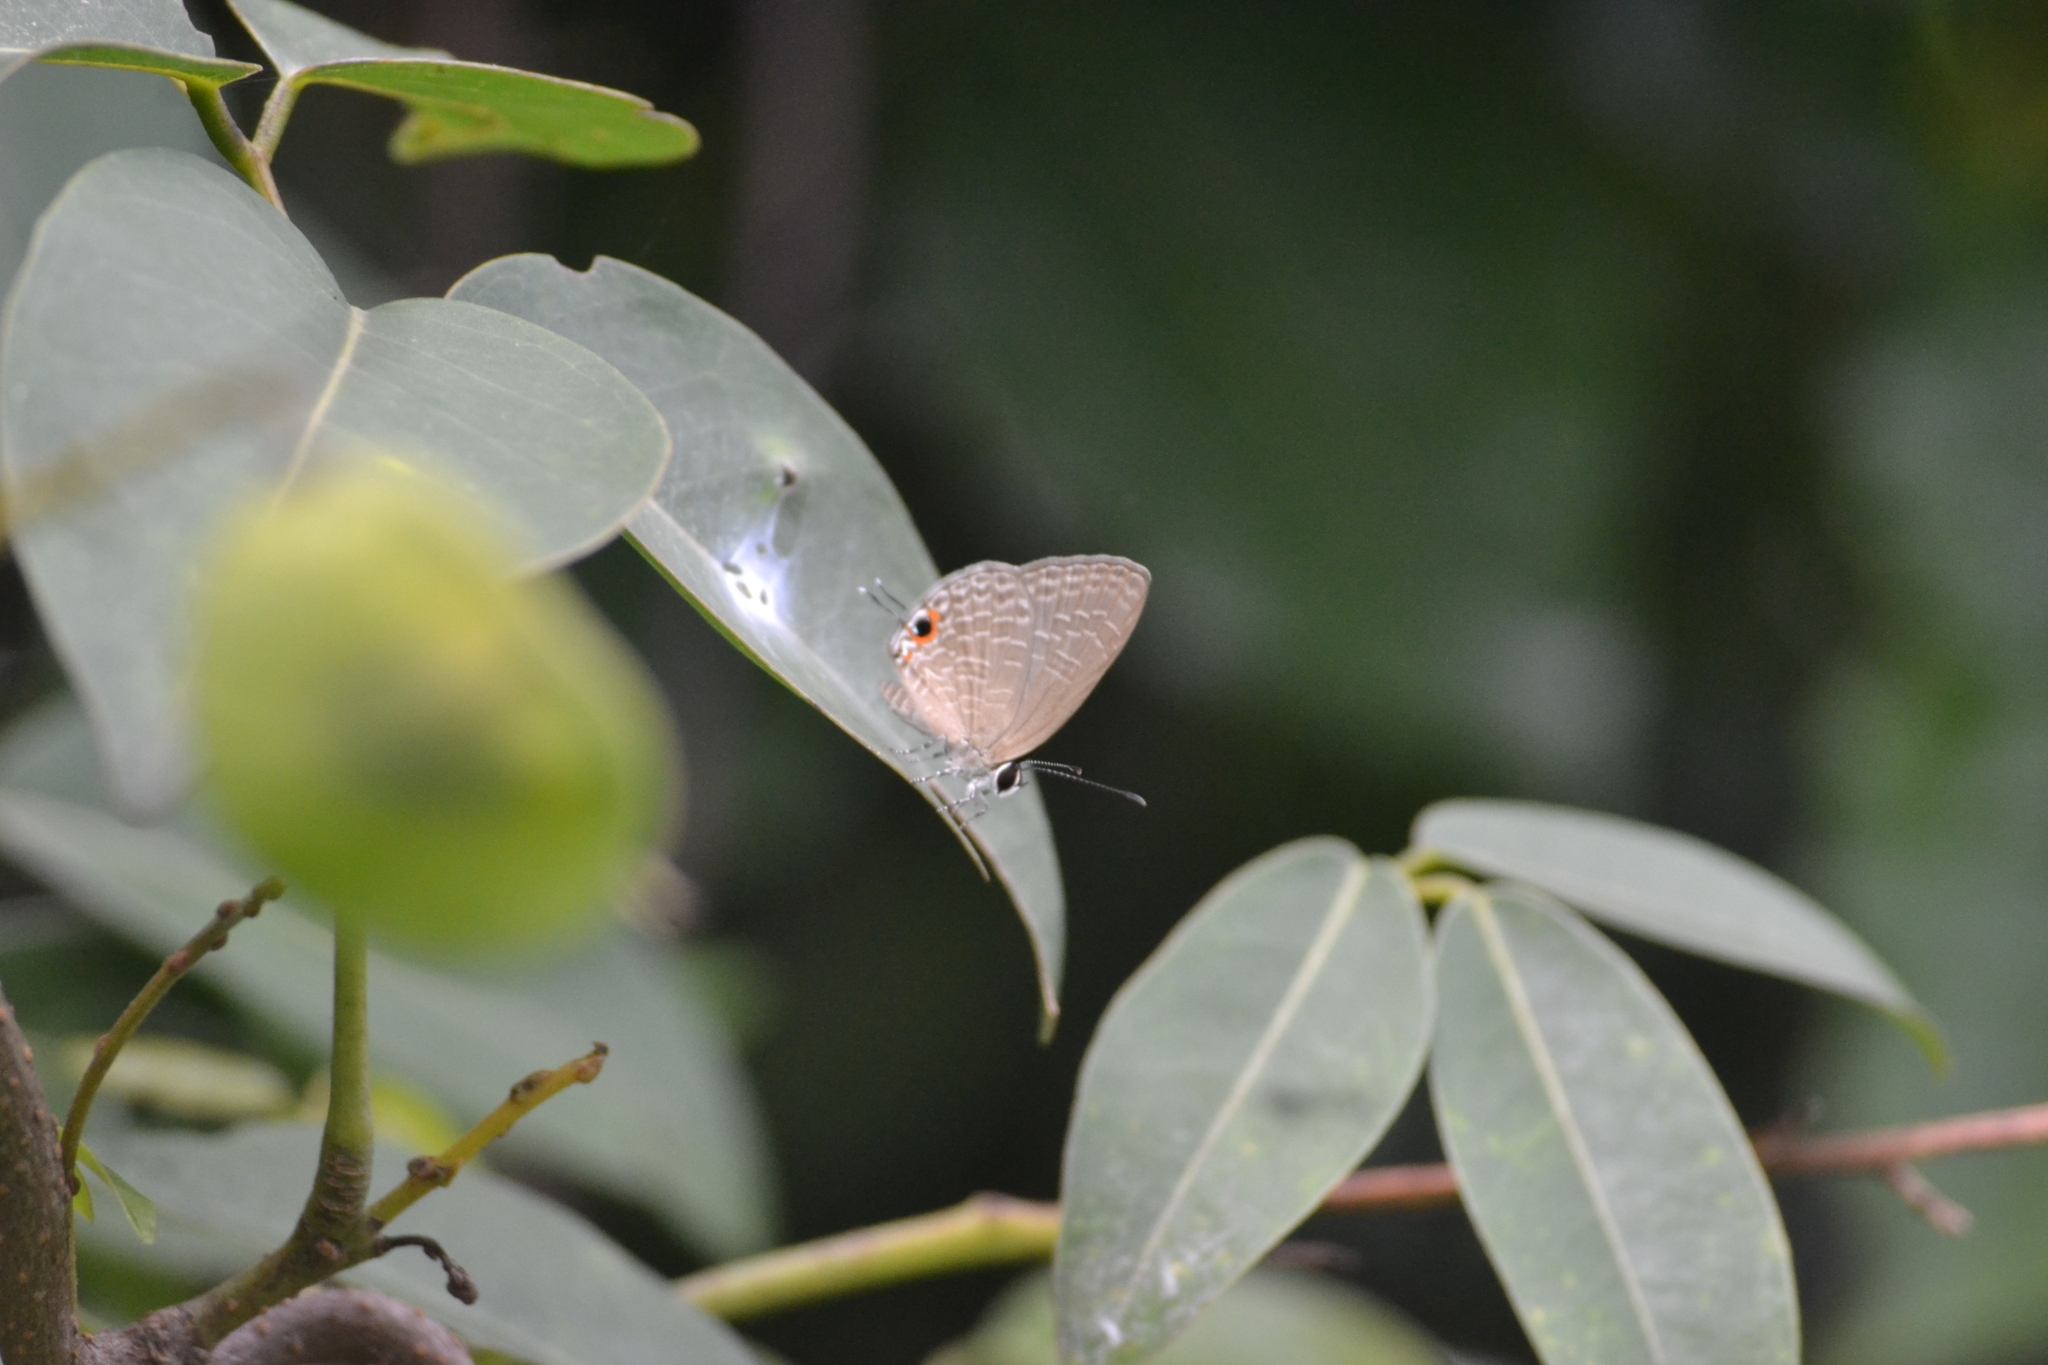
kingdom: Animalia
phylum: Arthropoda
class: Insecta
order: Lepidoptera
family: Lycaenidae
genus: Jamides
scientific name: Jamides bochus
